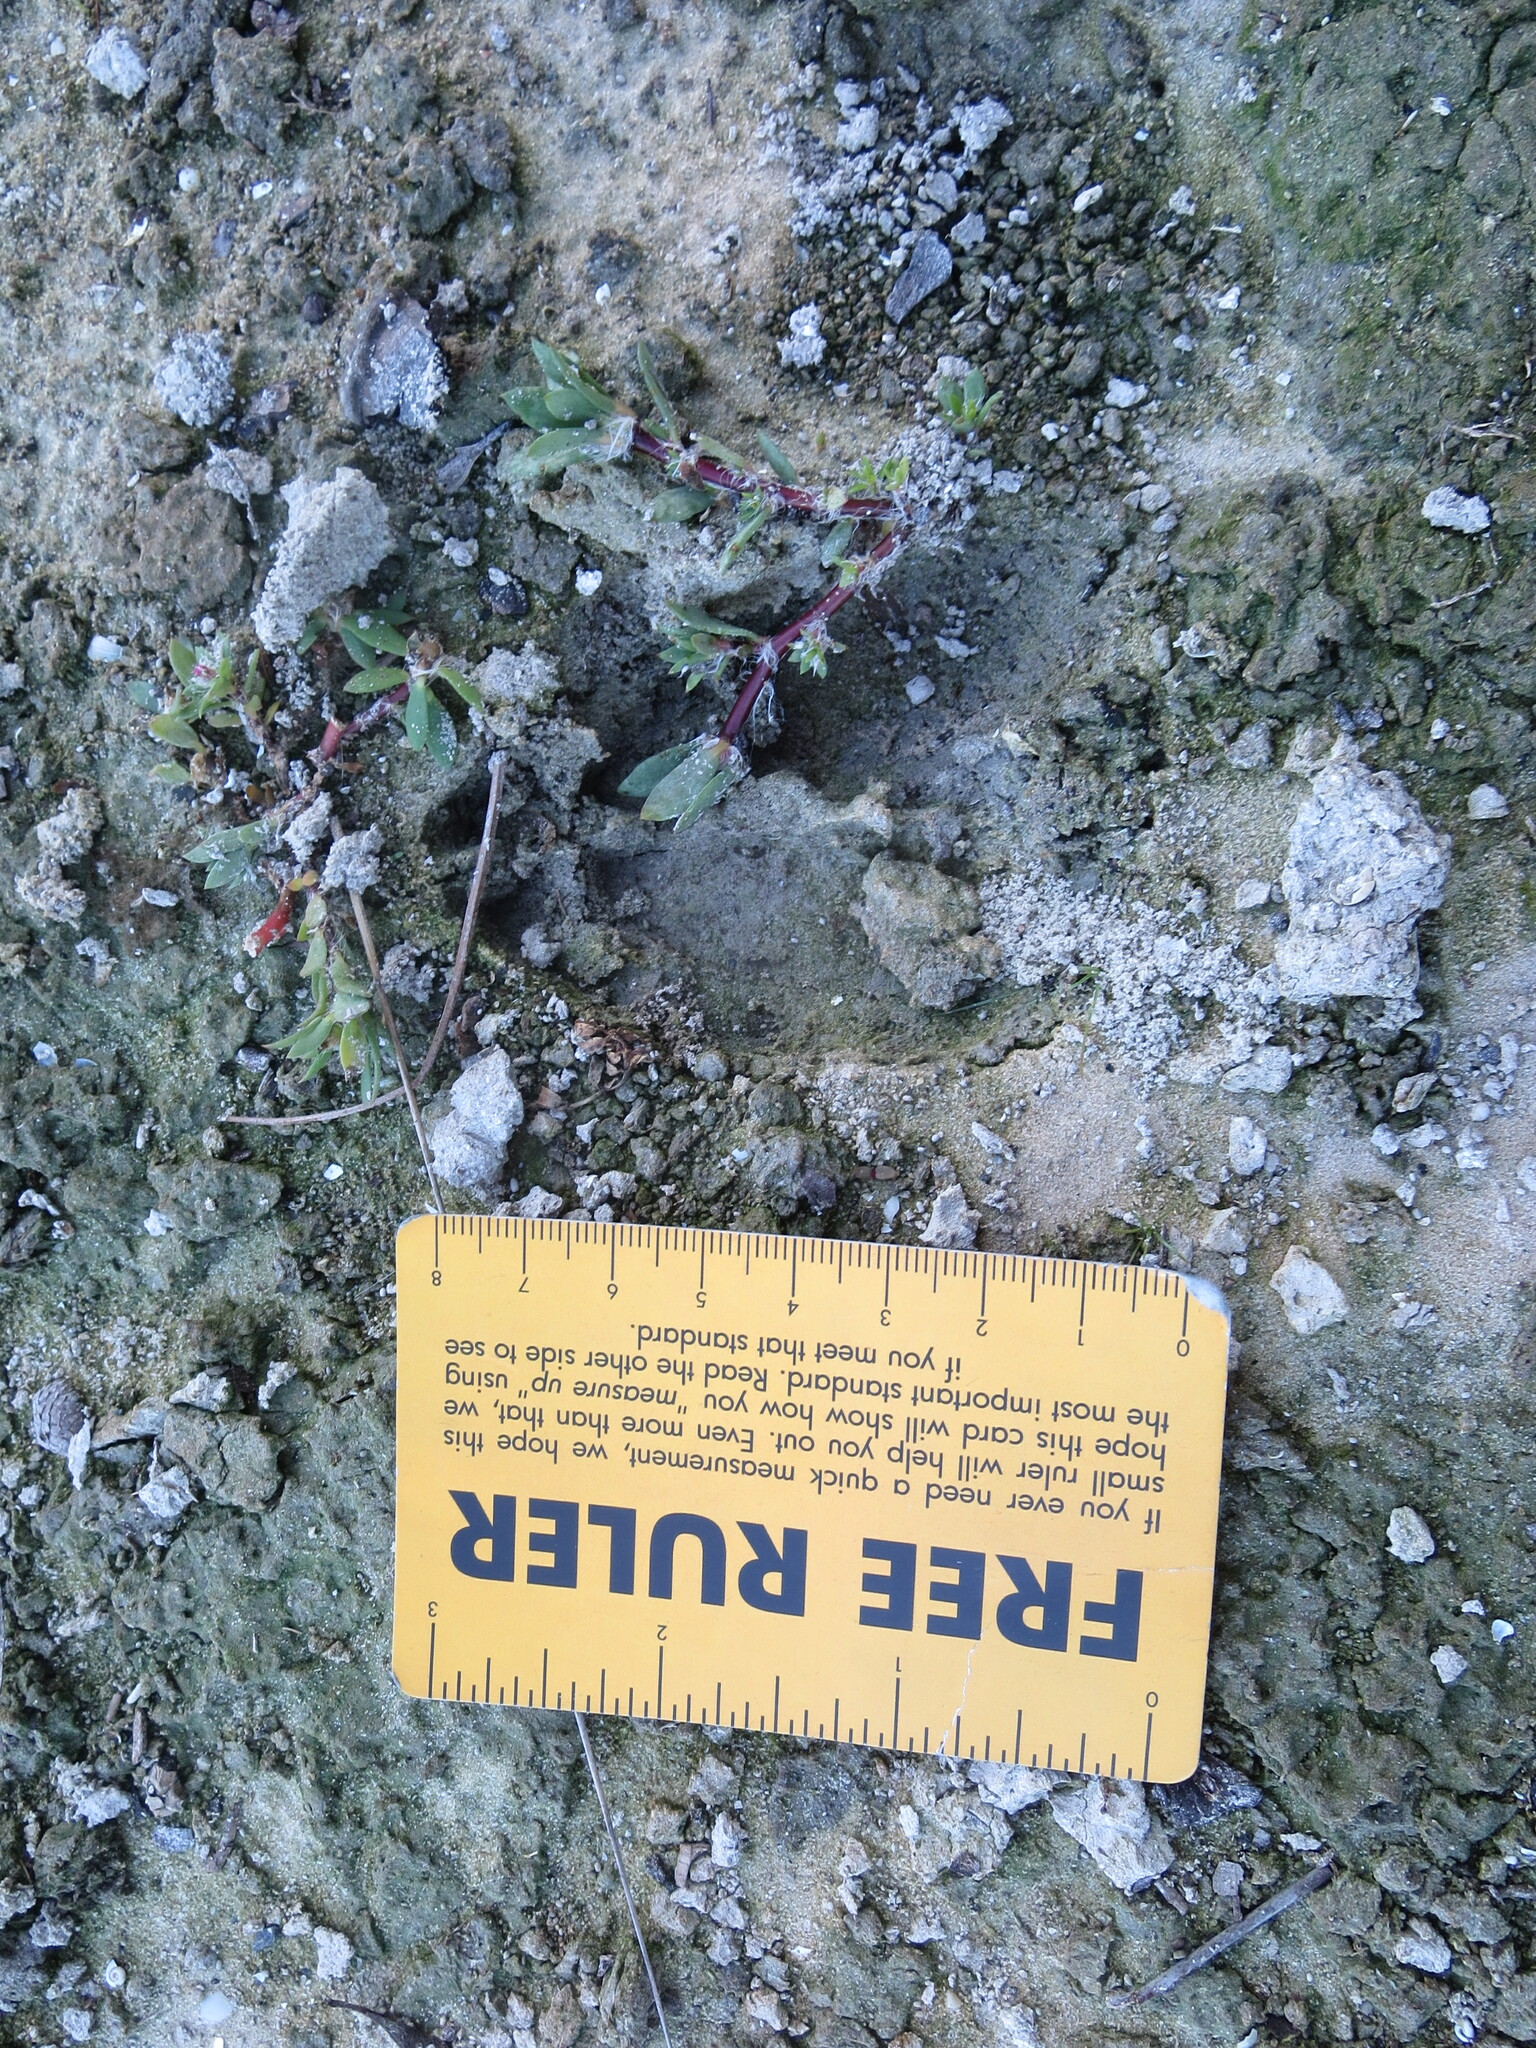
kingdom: Animalia
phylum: Chordata
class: Mammalia
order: Artiodactyla
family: Cervidae
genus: Odocoileus
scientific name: Odocoileus virginianus
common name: White-tailed deer
